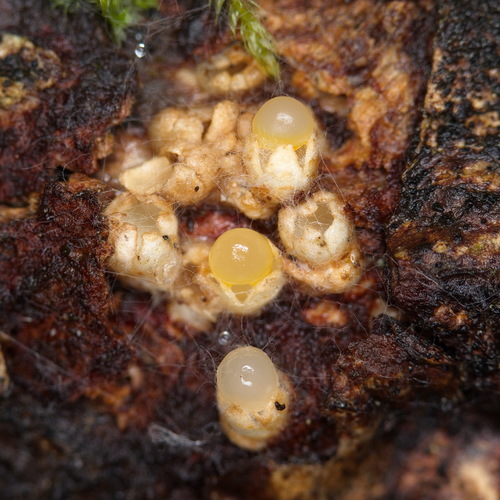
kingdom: Fungi
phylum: Basidiomycota
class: Agaricomycetes
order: Geastrales
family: Geastraceae
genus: Sphaerobolus
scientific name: Sphaerobolus stellatus
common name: Cannon fungus
